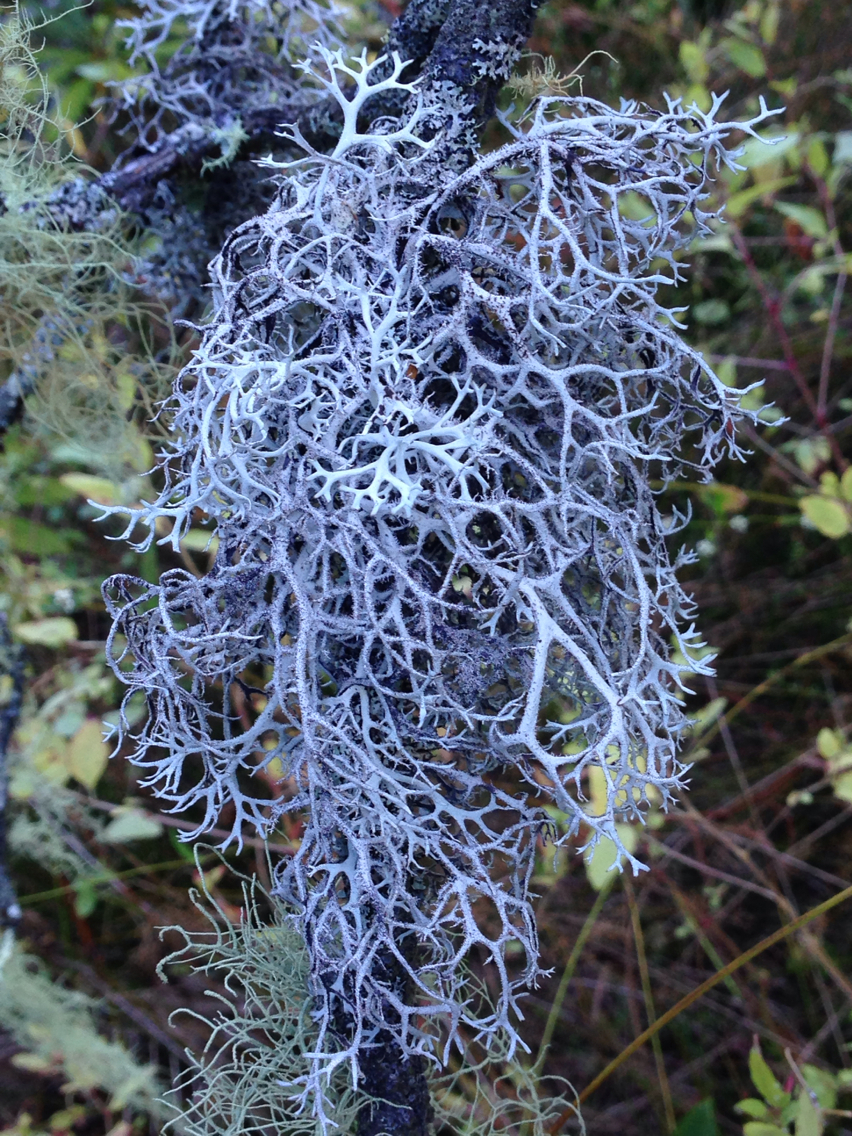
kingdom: Fungi
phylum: Ascomycota
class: Lecanoromycetes
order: Lecanorales
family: Parmeliaceae
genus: Pseudevernia
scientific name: Pseudevernia consocians
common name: Common antler lichen
